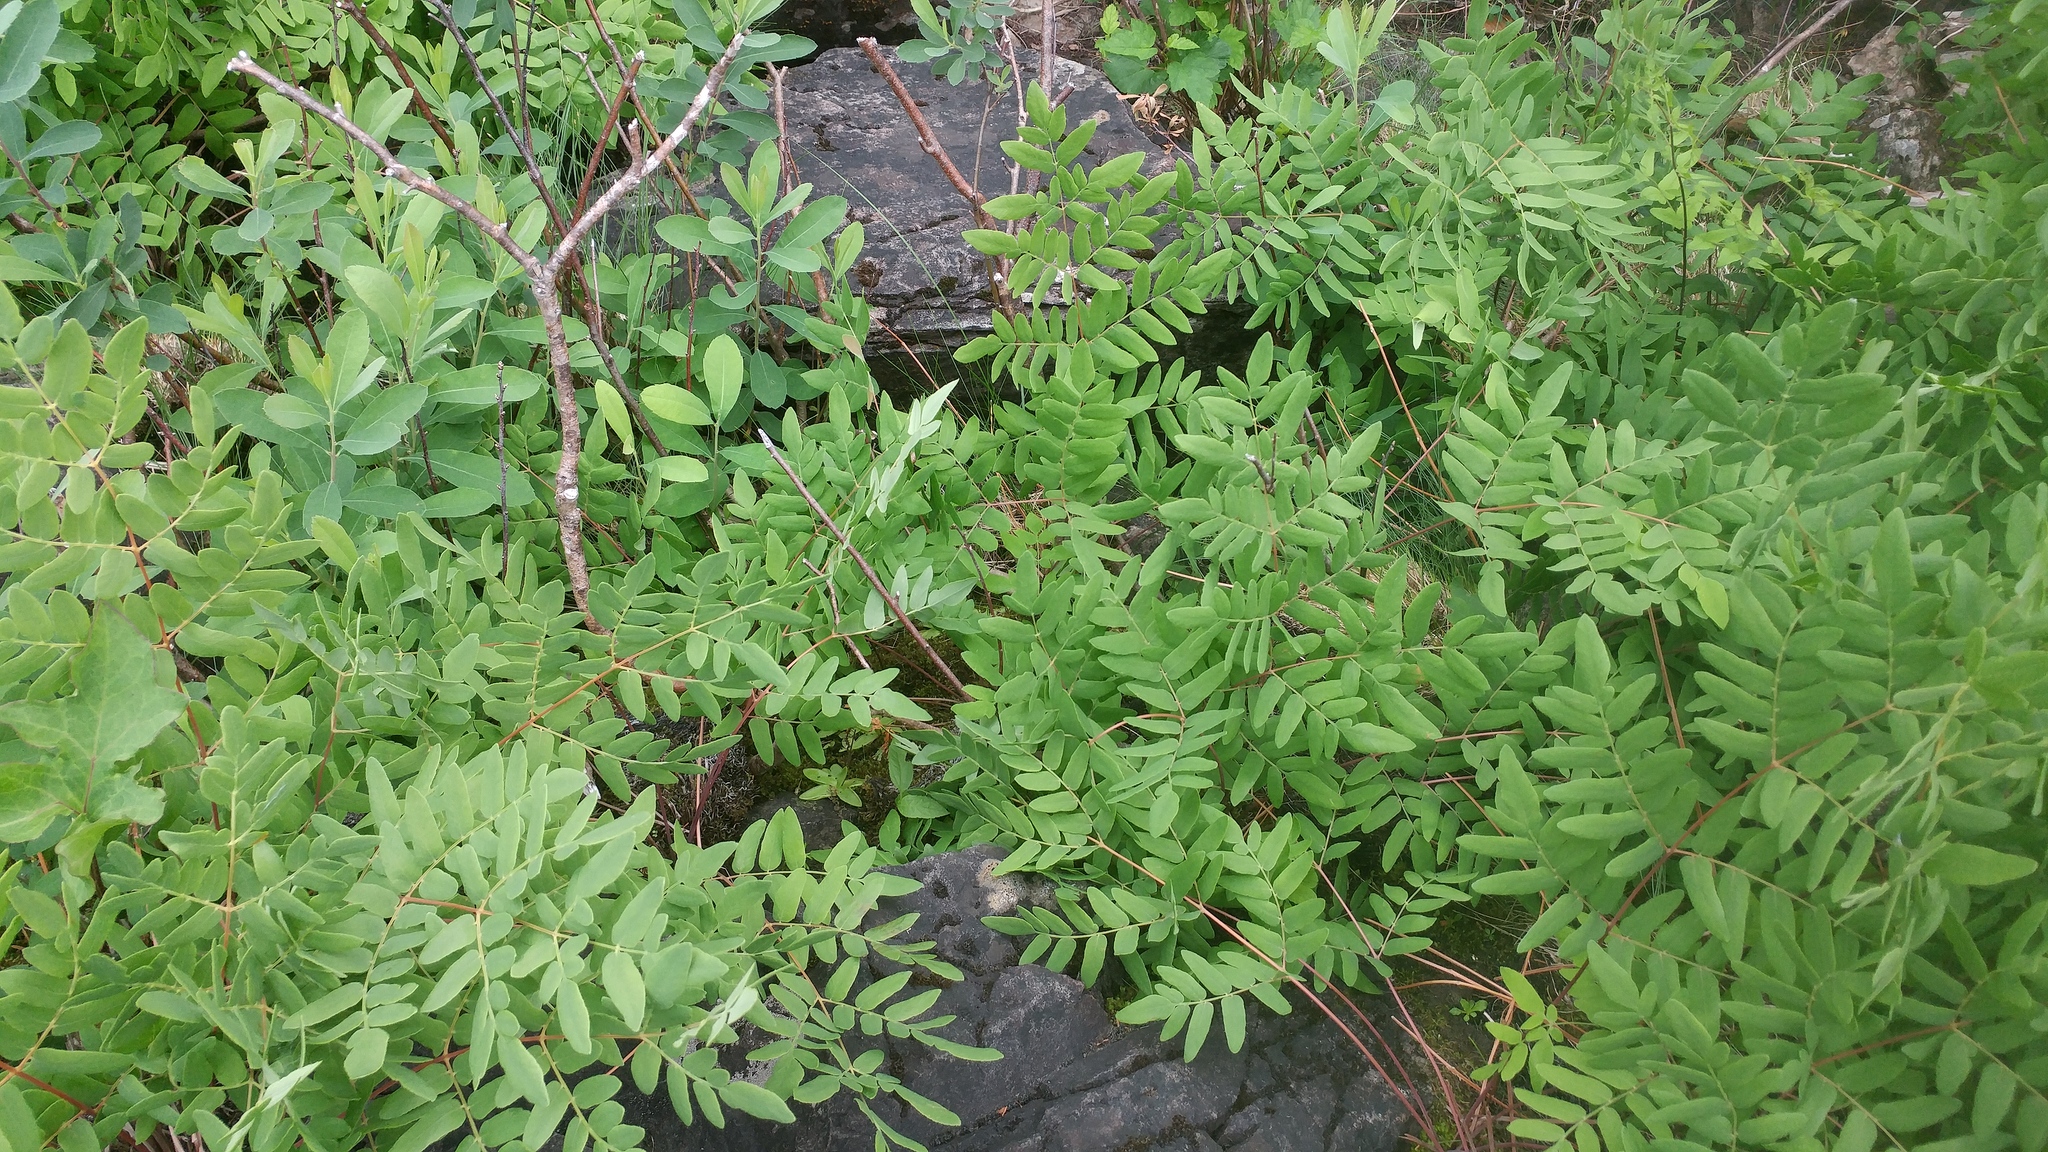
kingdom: Plantae
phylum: Tracheophyta
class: Polypodiopsida
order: Osmundales
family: Osmundaceae
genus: Osmunda
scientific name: Osmunda spectabilis
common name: American royal fern
